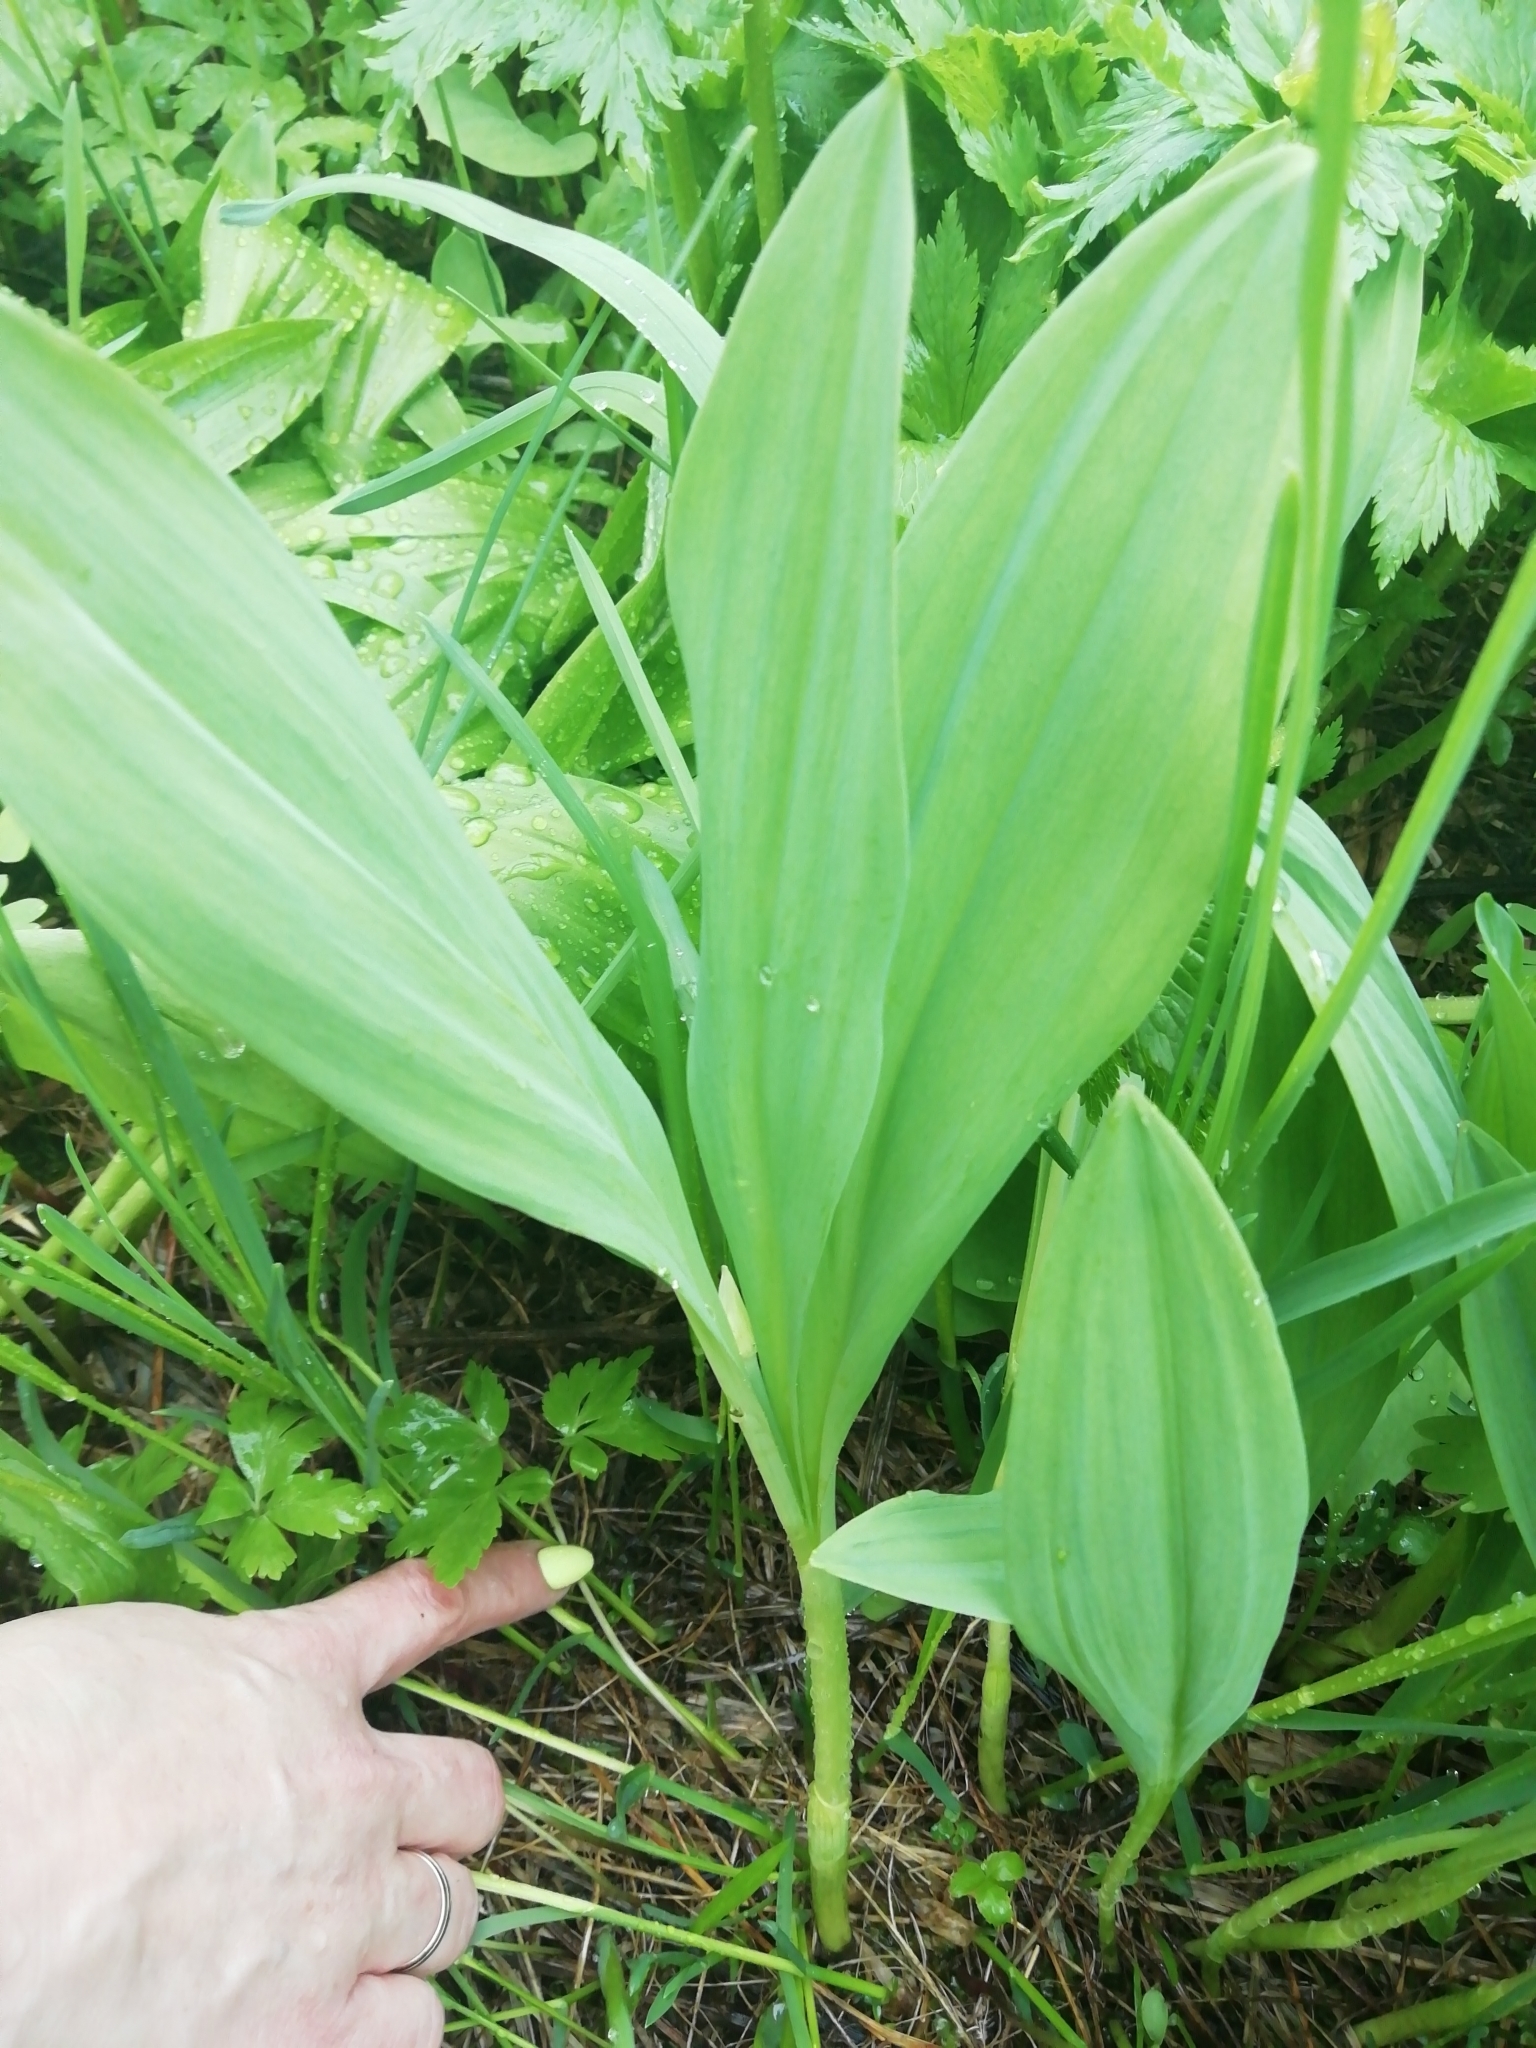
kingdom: Plantae
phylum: Tracheophyta
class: Liliopsida
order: Asparagales
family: Amaryllidaceae
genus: Allium
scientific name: Allium microdictyon
